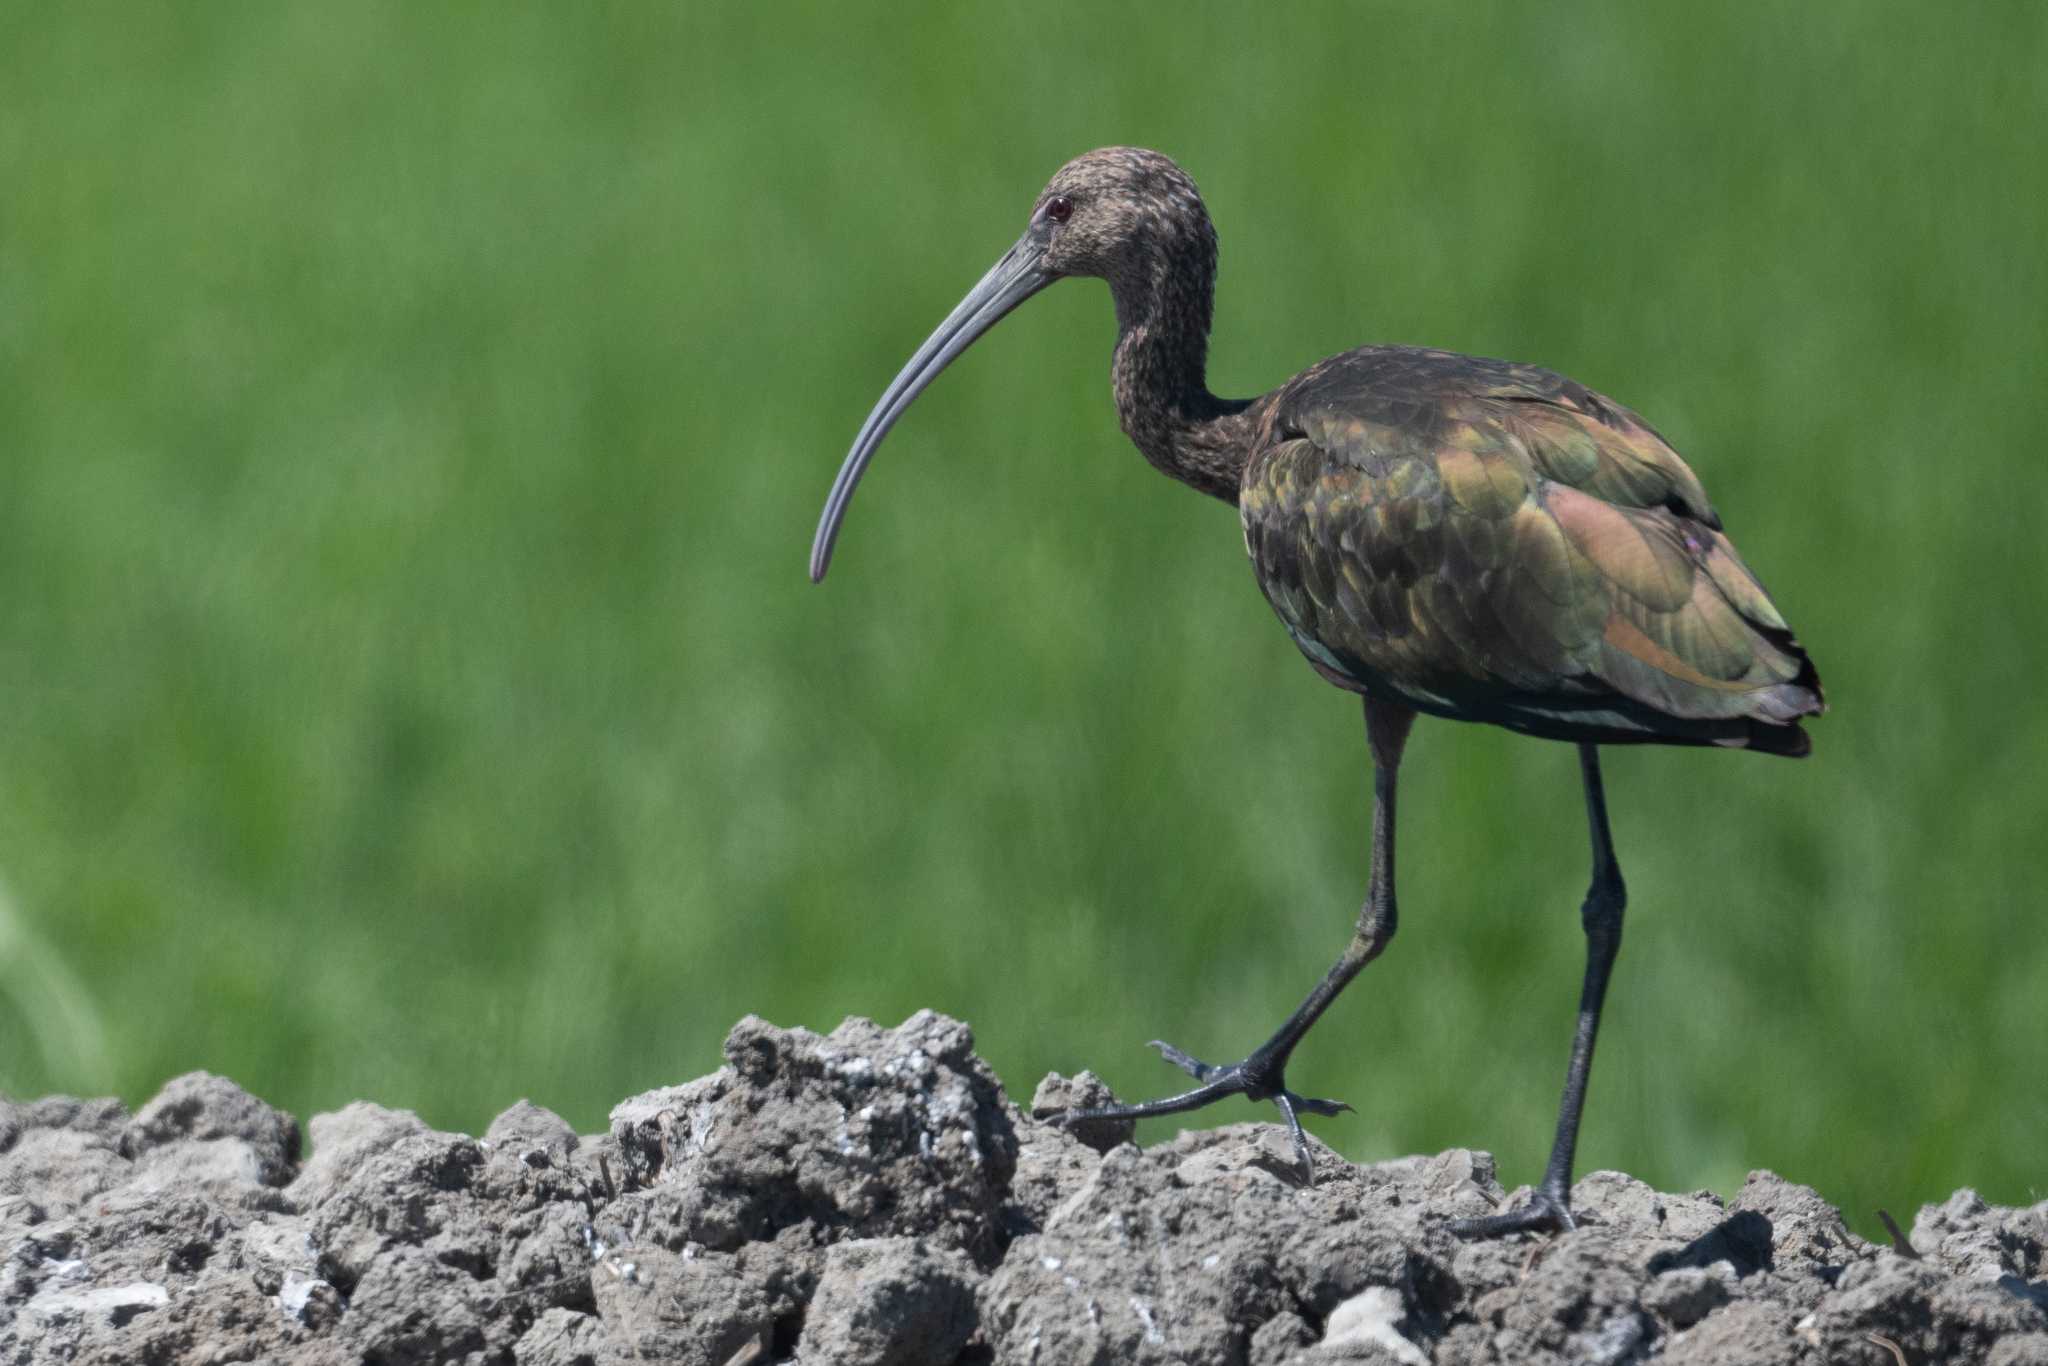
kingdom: Animalia
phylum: Chordata
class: Aves
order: Pelecaniformes
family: Threskiornithidae
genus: Plegadis
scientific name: Plegadis chihi
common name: White-faced ibis
